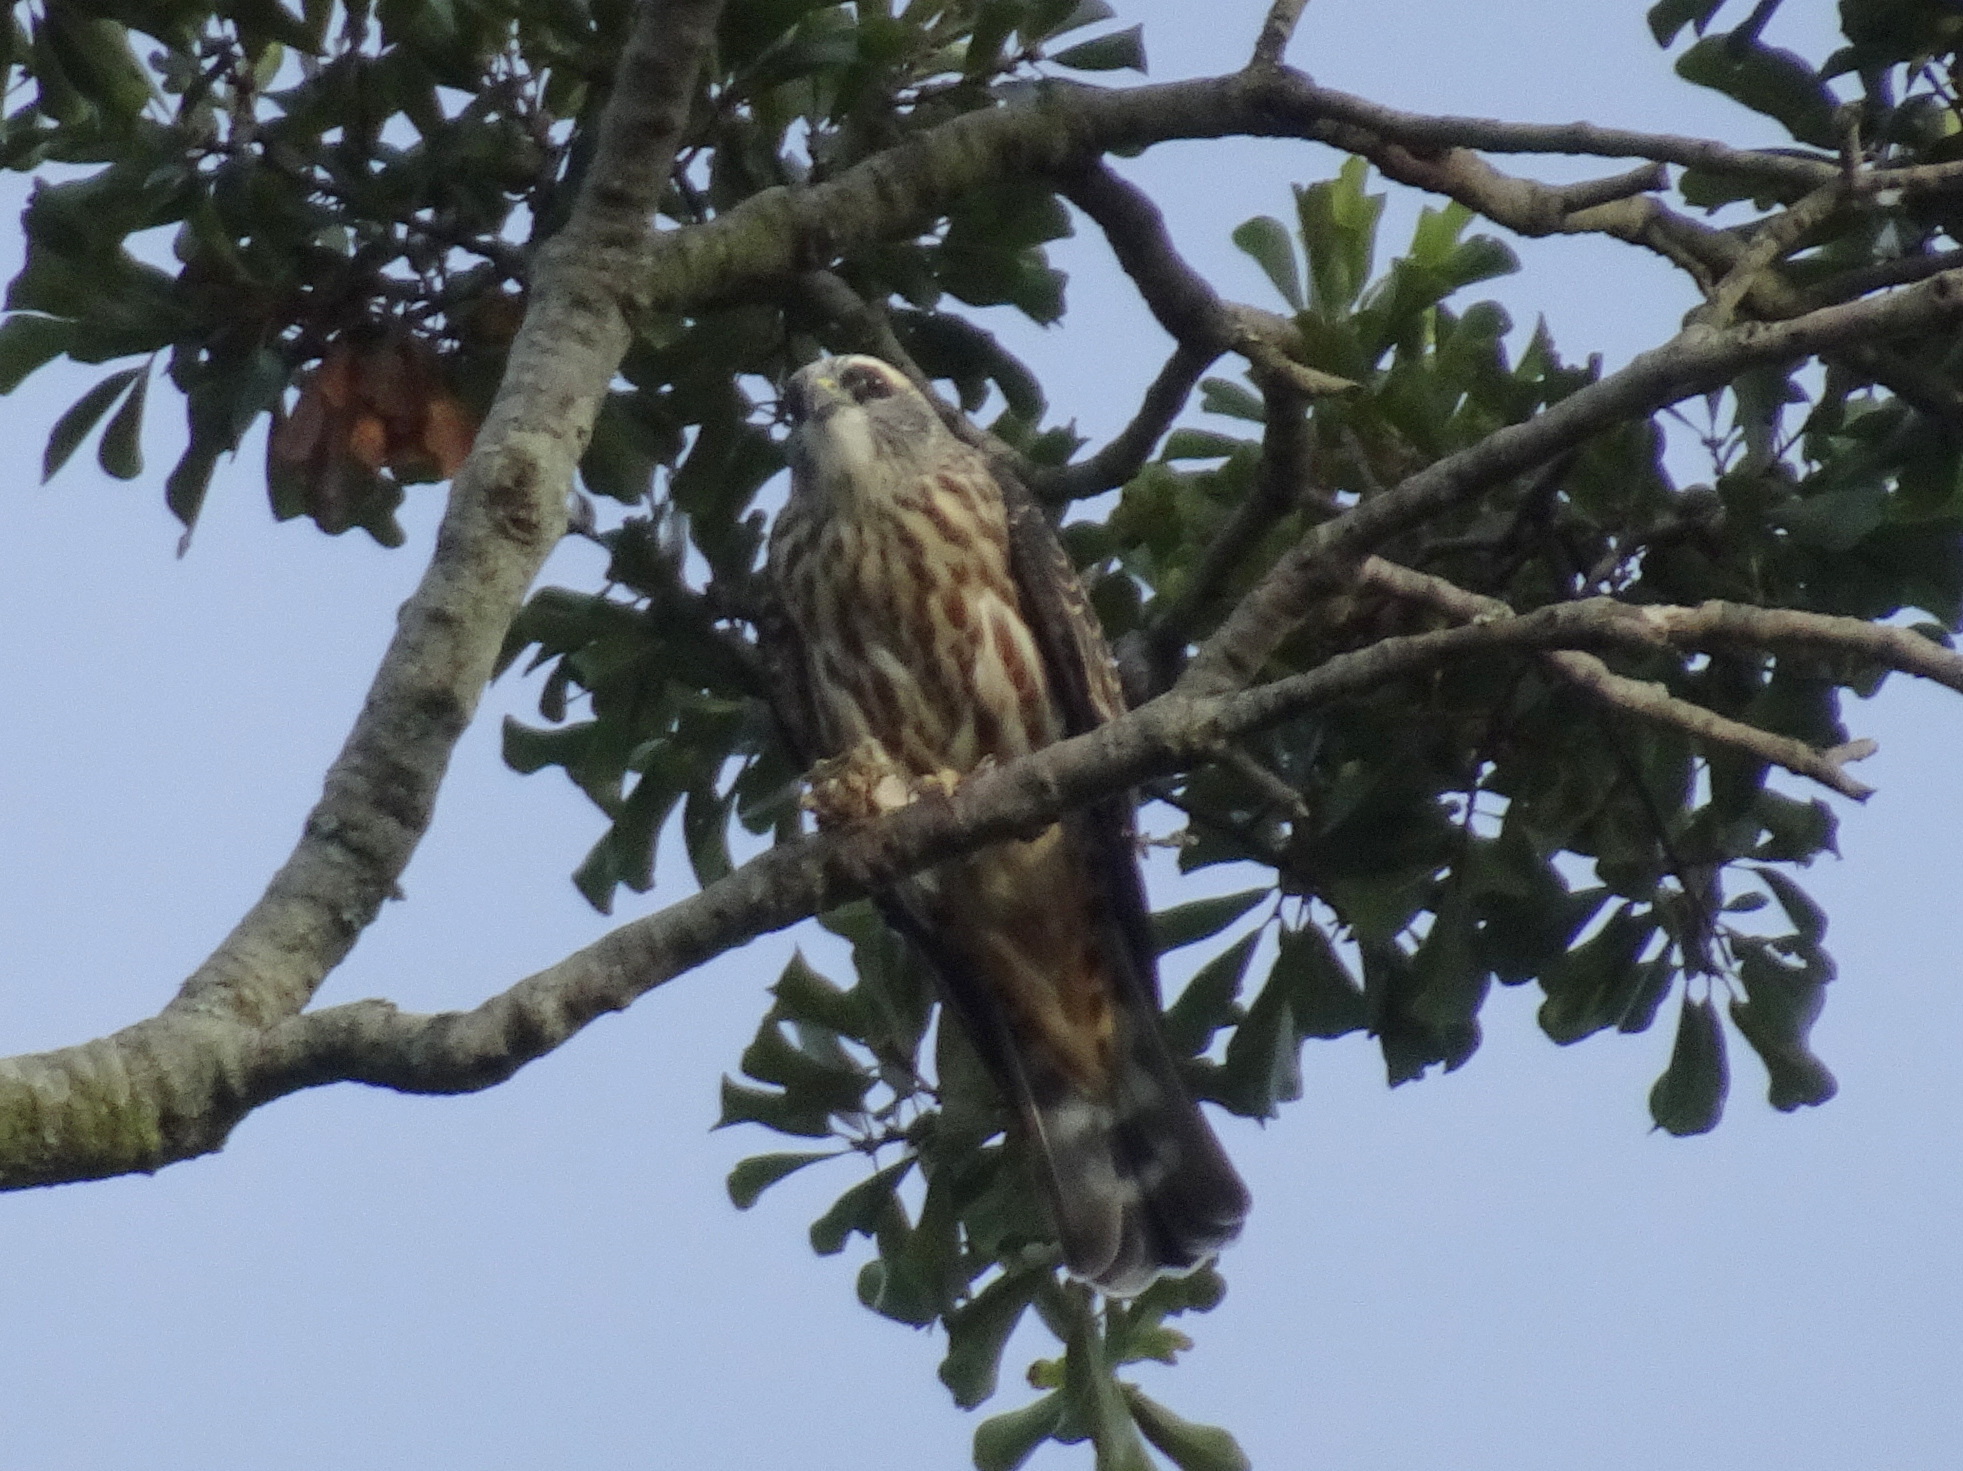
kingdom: Animalia
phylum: Chordata
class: Aves
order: Accipitriformes
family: Accipitridae
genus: Ictinia
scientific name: Ictinia mississippiensis
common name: Mississippi kite
